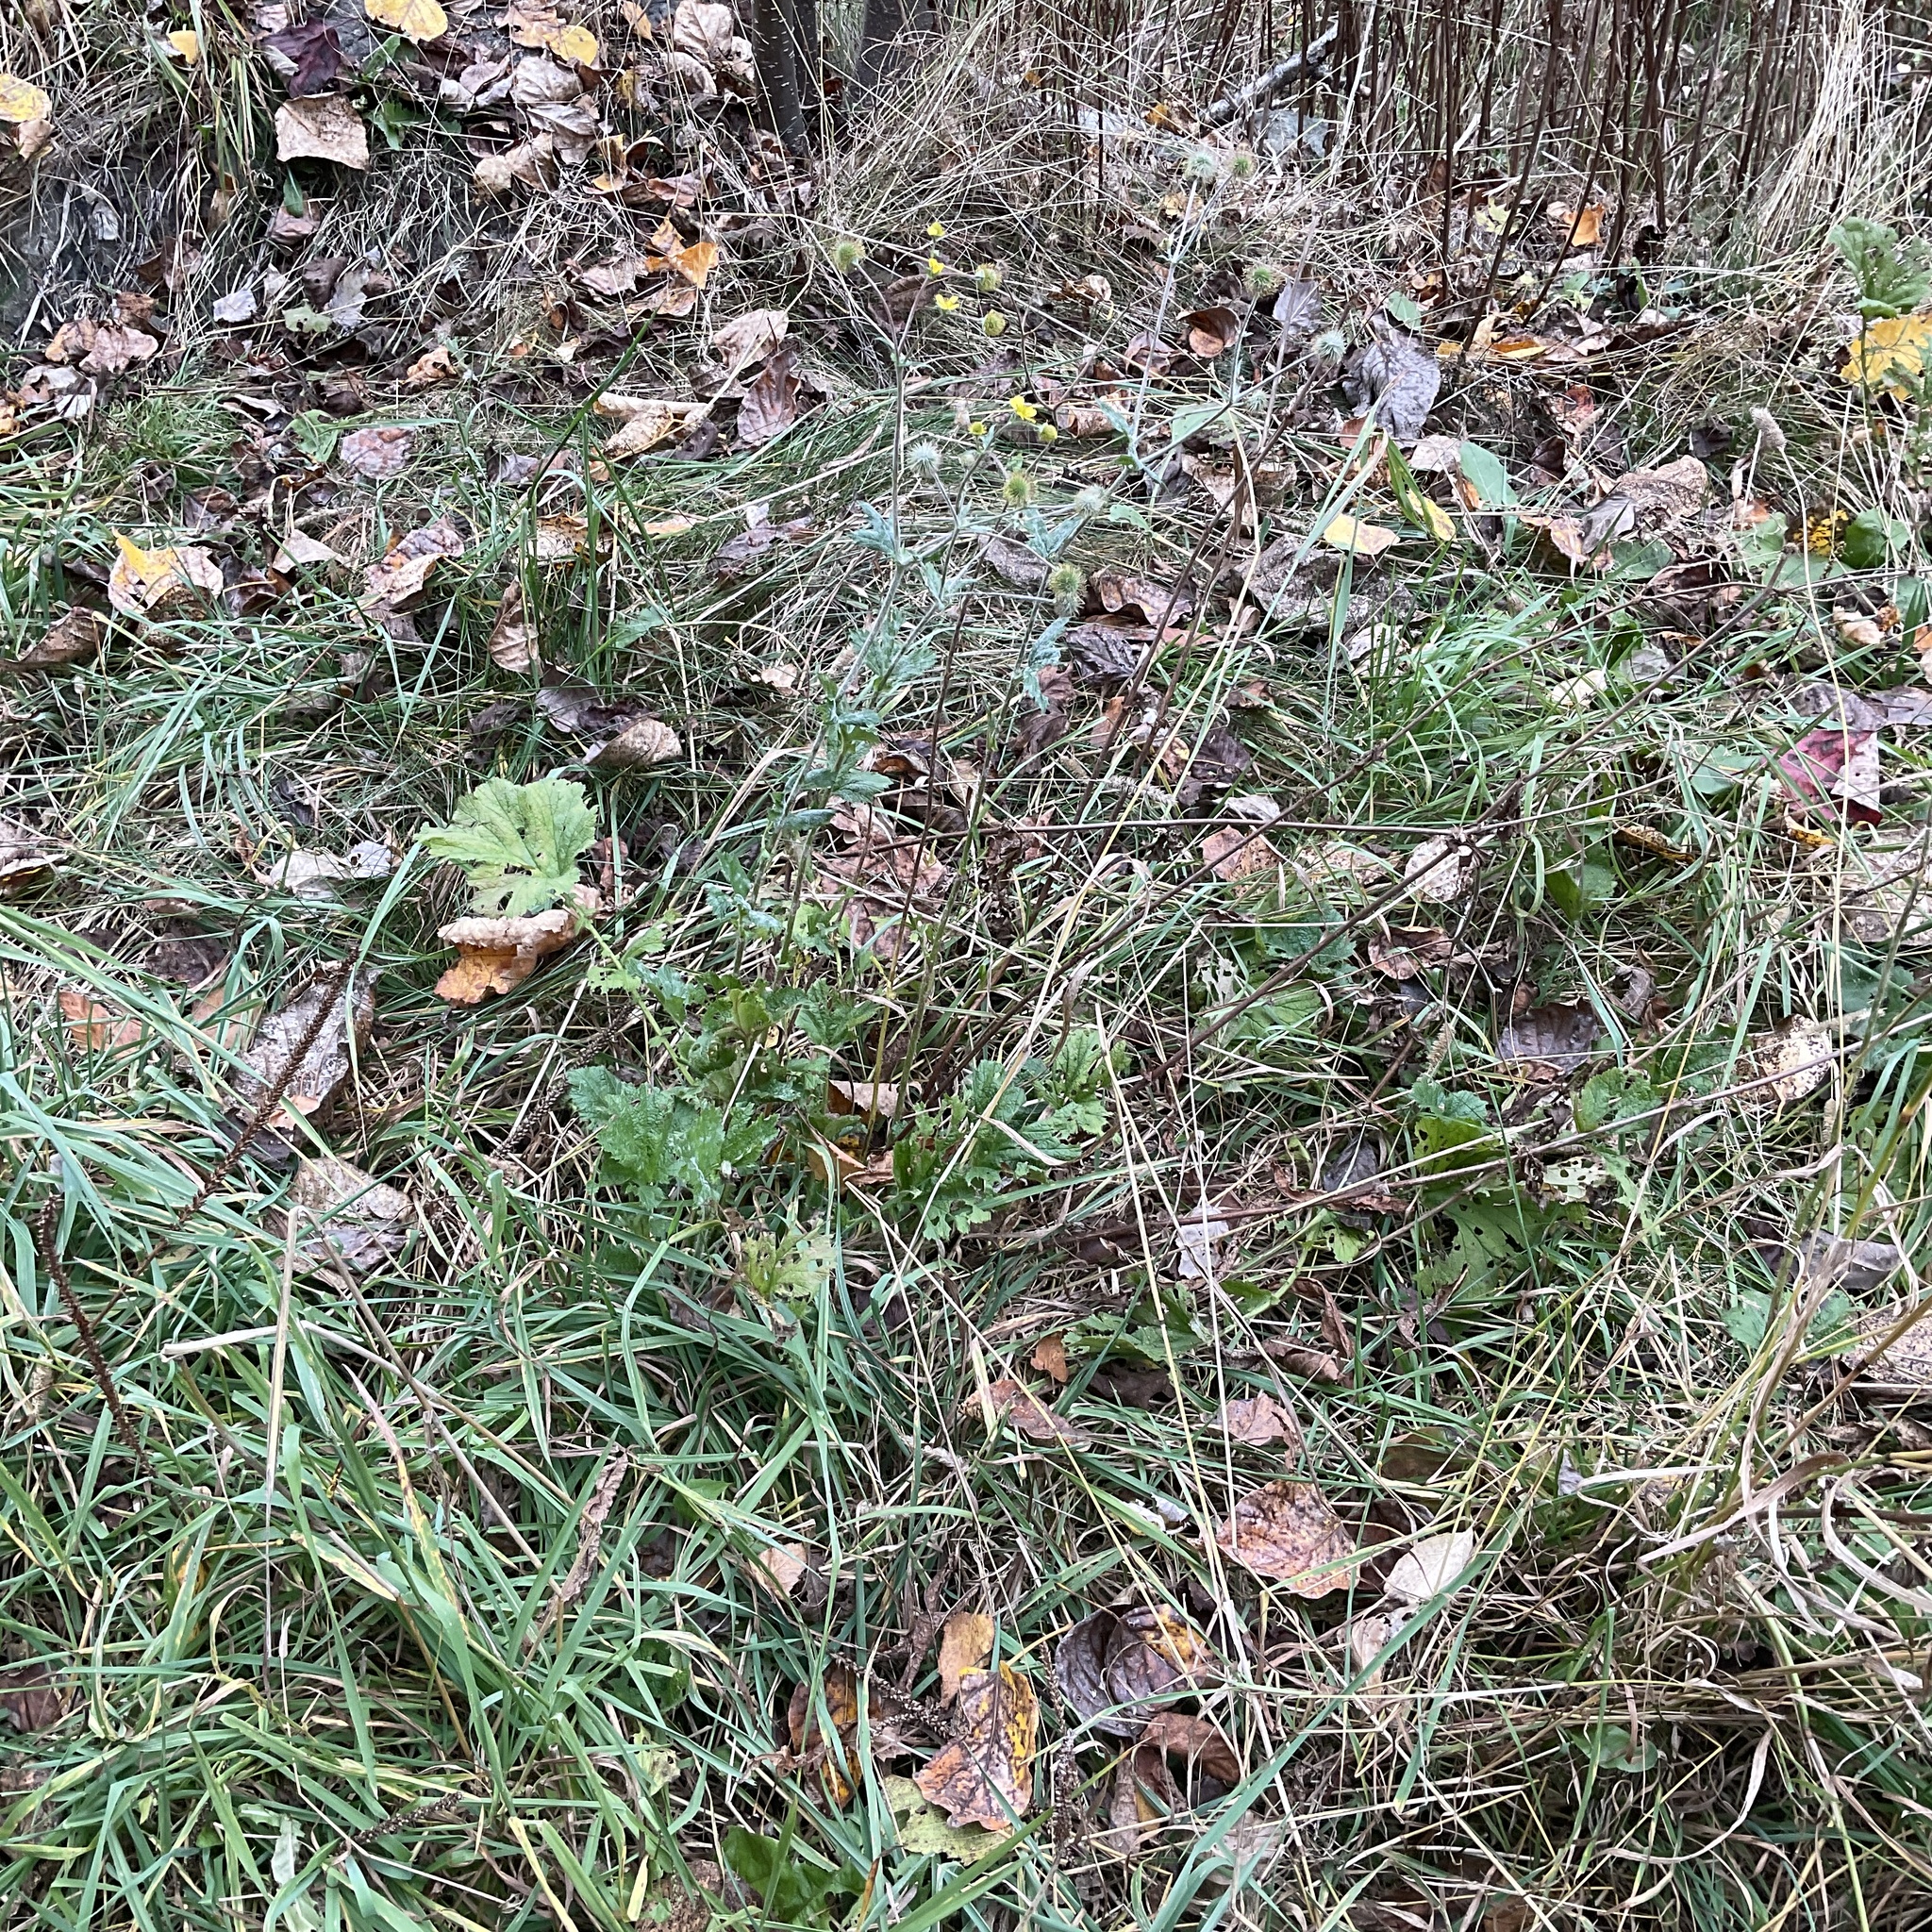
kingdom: Plantae
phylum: Tracheophyta
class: Magnoliopsida
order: Rosales
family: Rosaceae
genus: Geum
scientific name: Geum macrophyllum
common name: Large-leaved avens
